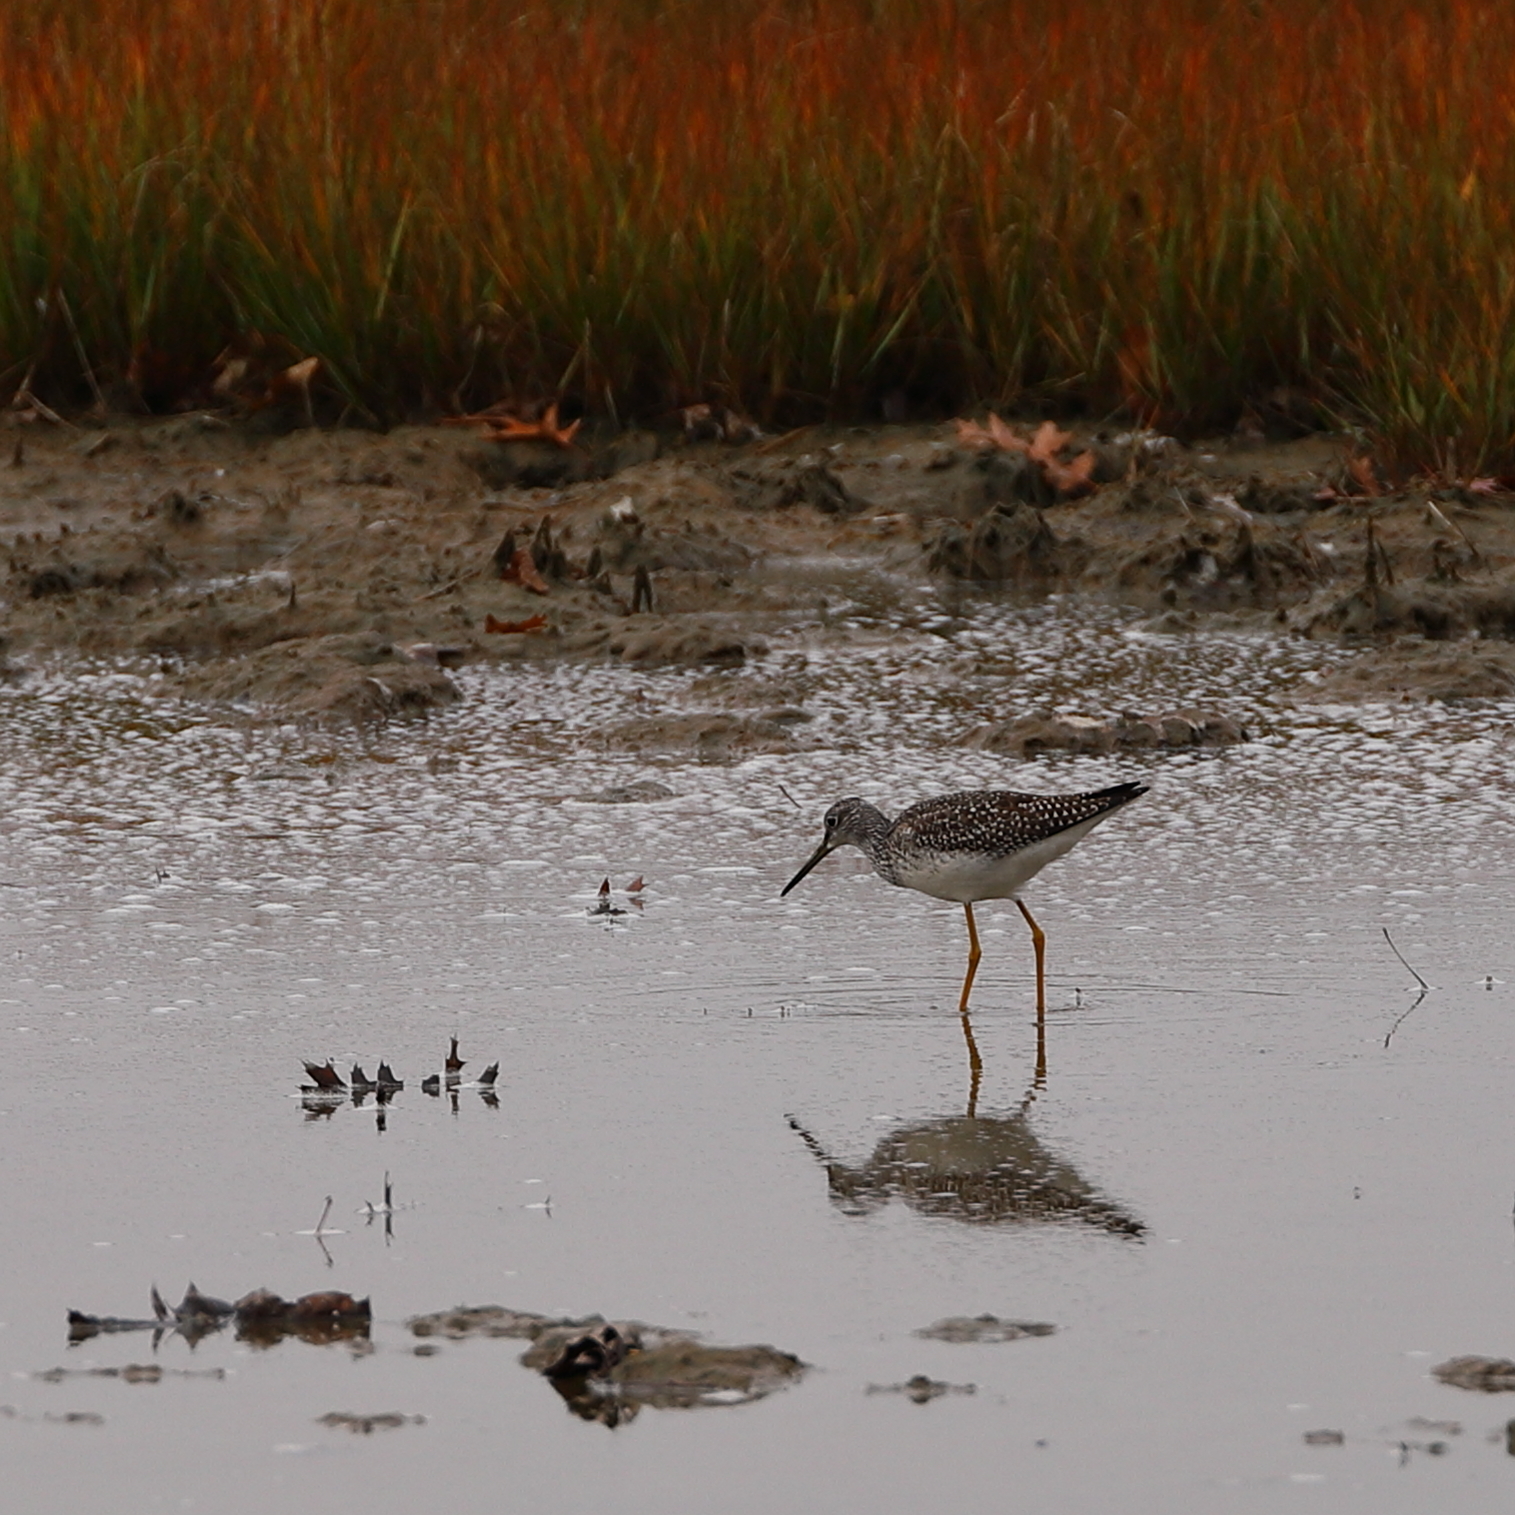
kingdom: Animalia
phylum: Chordata
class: Aves
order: Charadriiformes
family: Scolopacidae
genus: Tringa
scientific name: Tringa melanoleuca
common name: Greater yellowlegs
